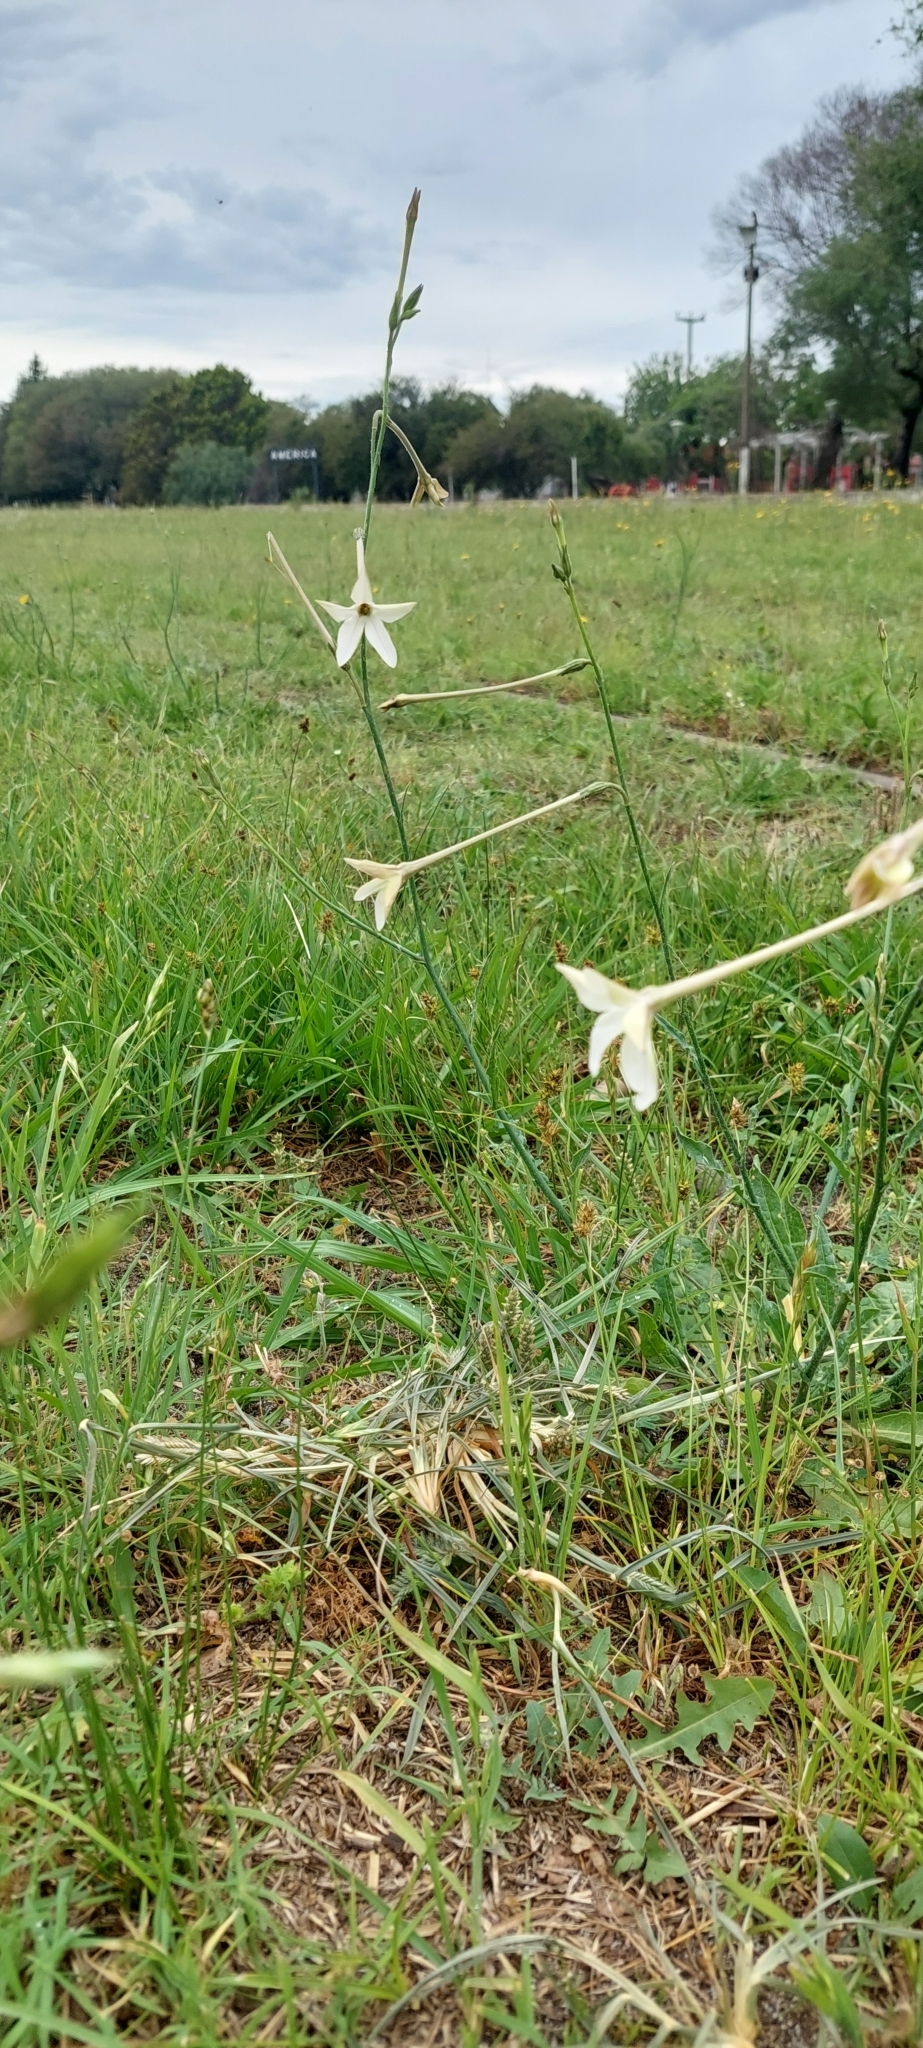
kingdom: Plantae
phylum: Tracheophyta
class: Magnoliopsida
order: Solanales
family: Solanaceae
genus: Nicotiana
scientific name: Nicotiana longiflora
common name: Long-flowered tobacco
